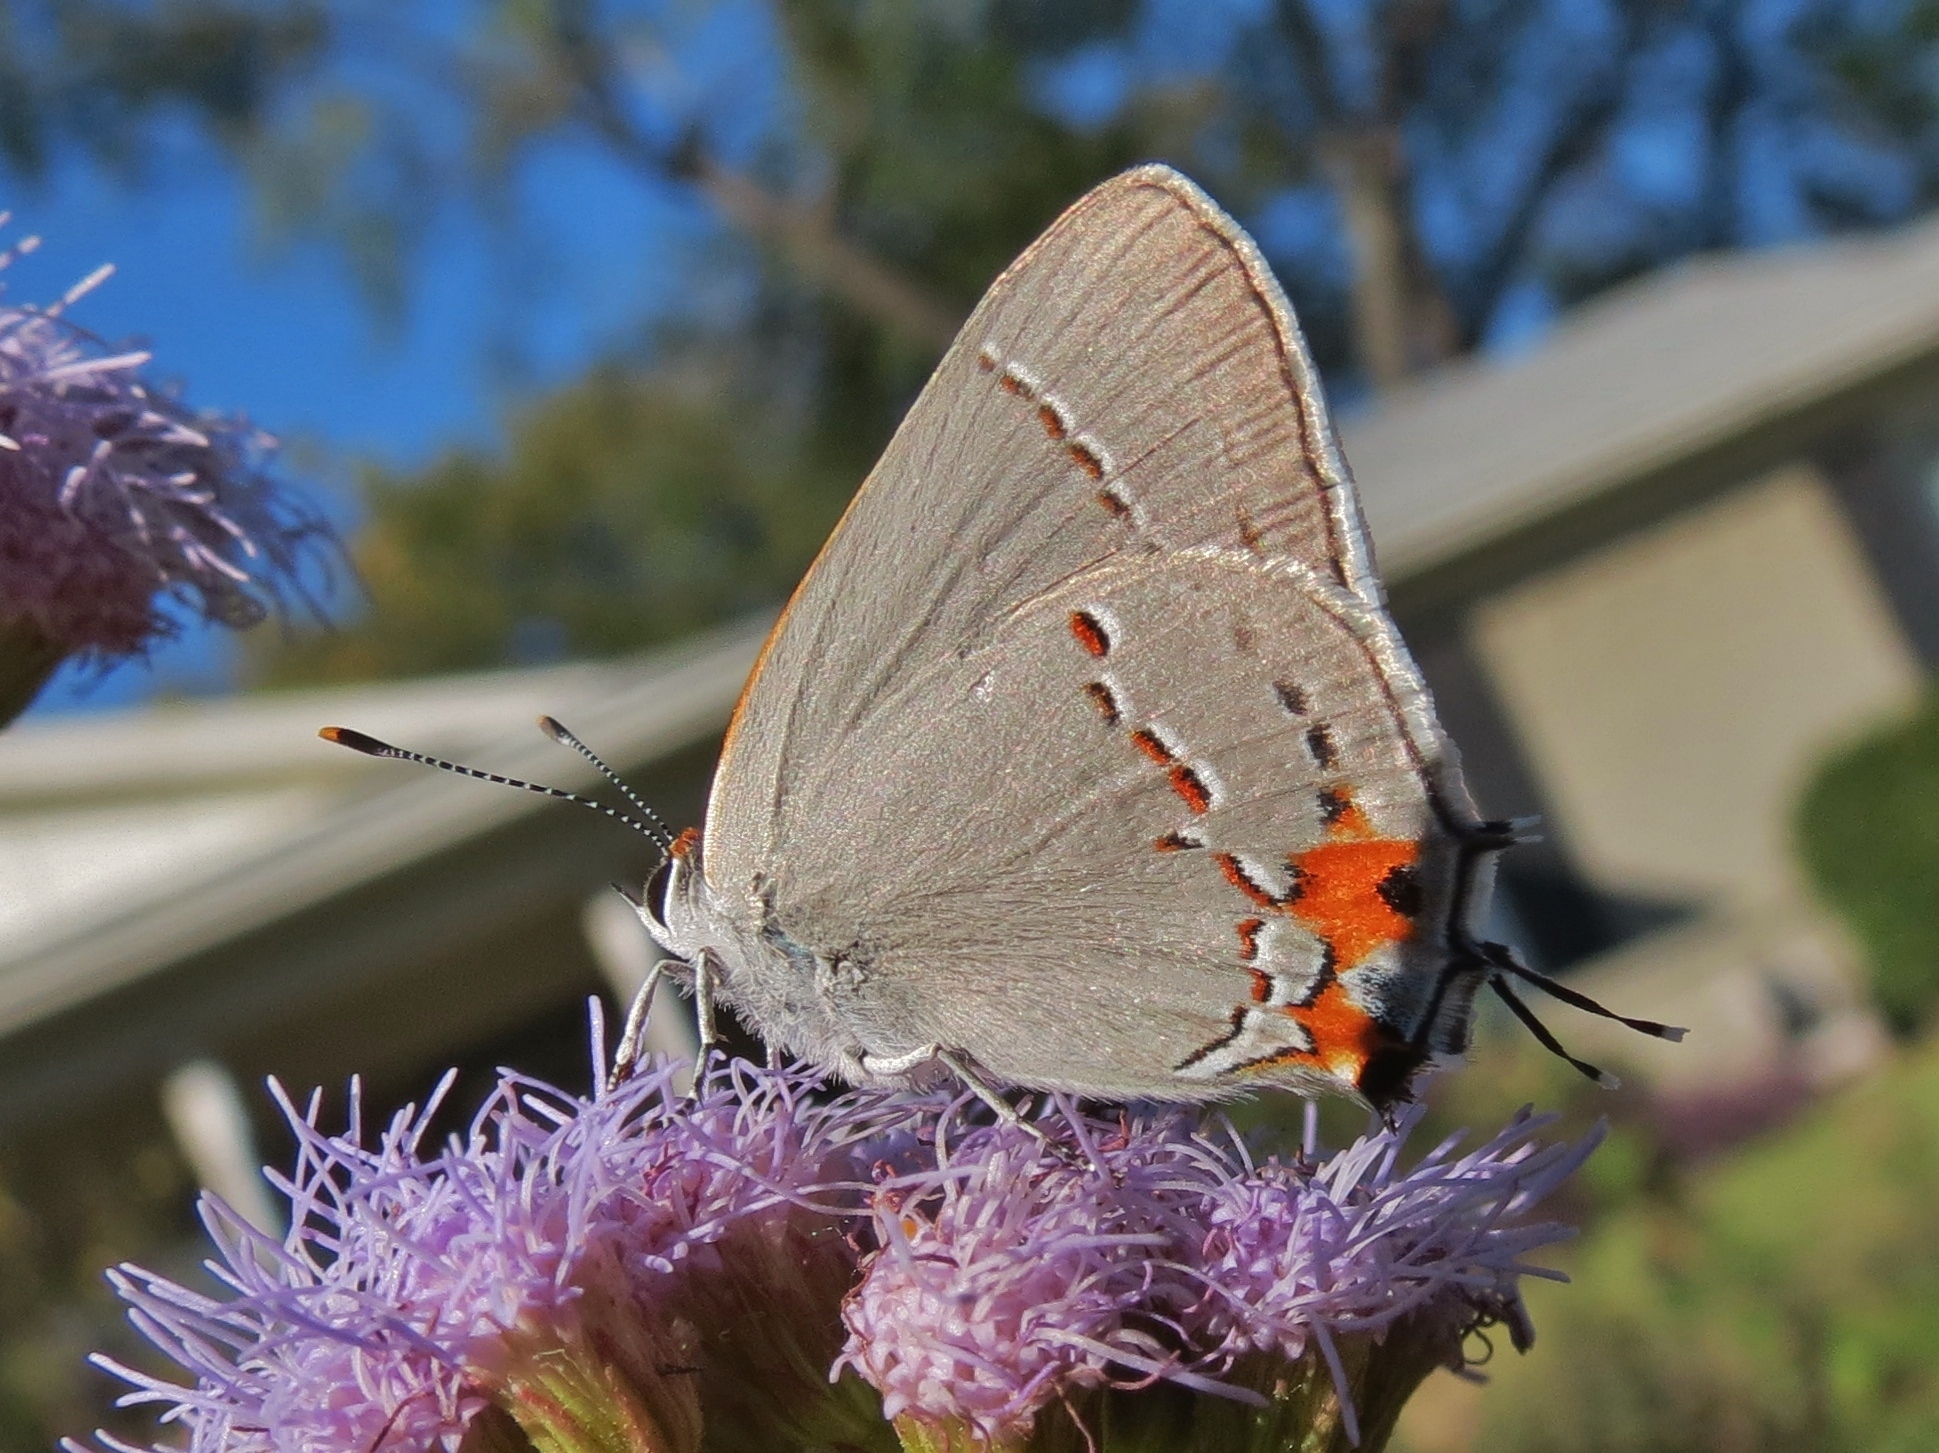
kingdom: Animalia
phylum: Arthropoda
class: Insecta
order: Lepidoptera
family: Lycaenidae
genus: Strymon
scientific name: Strymon melinus
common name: Gray hairstreak
